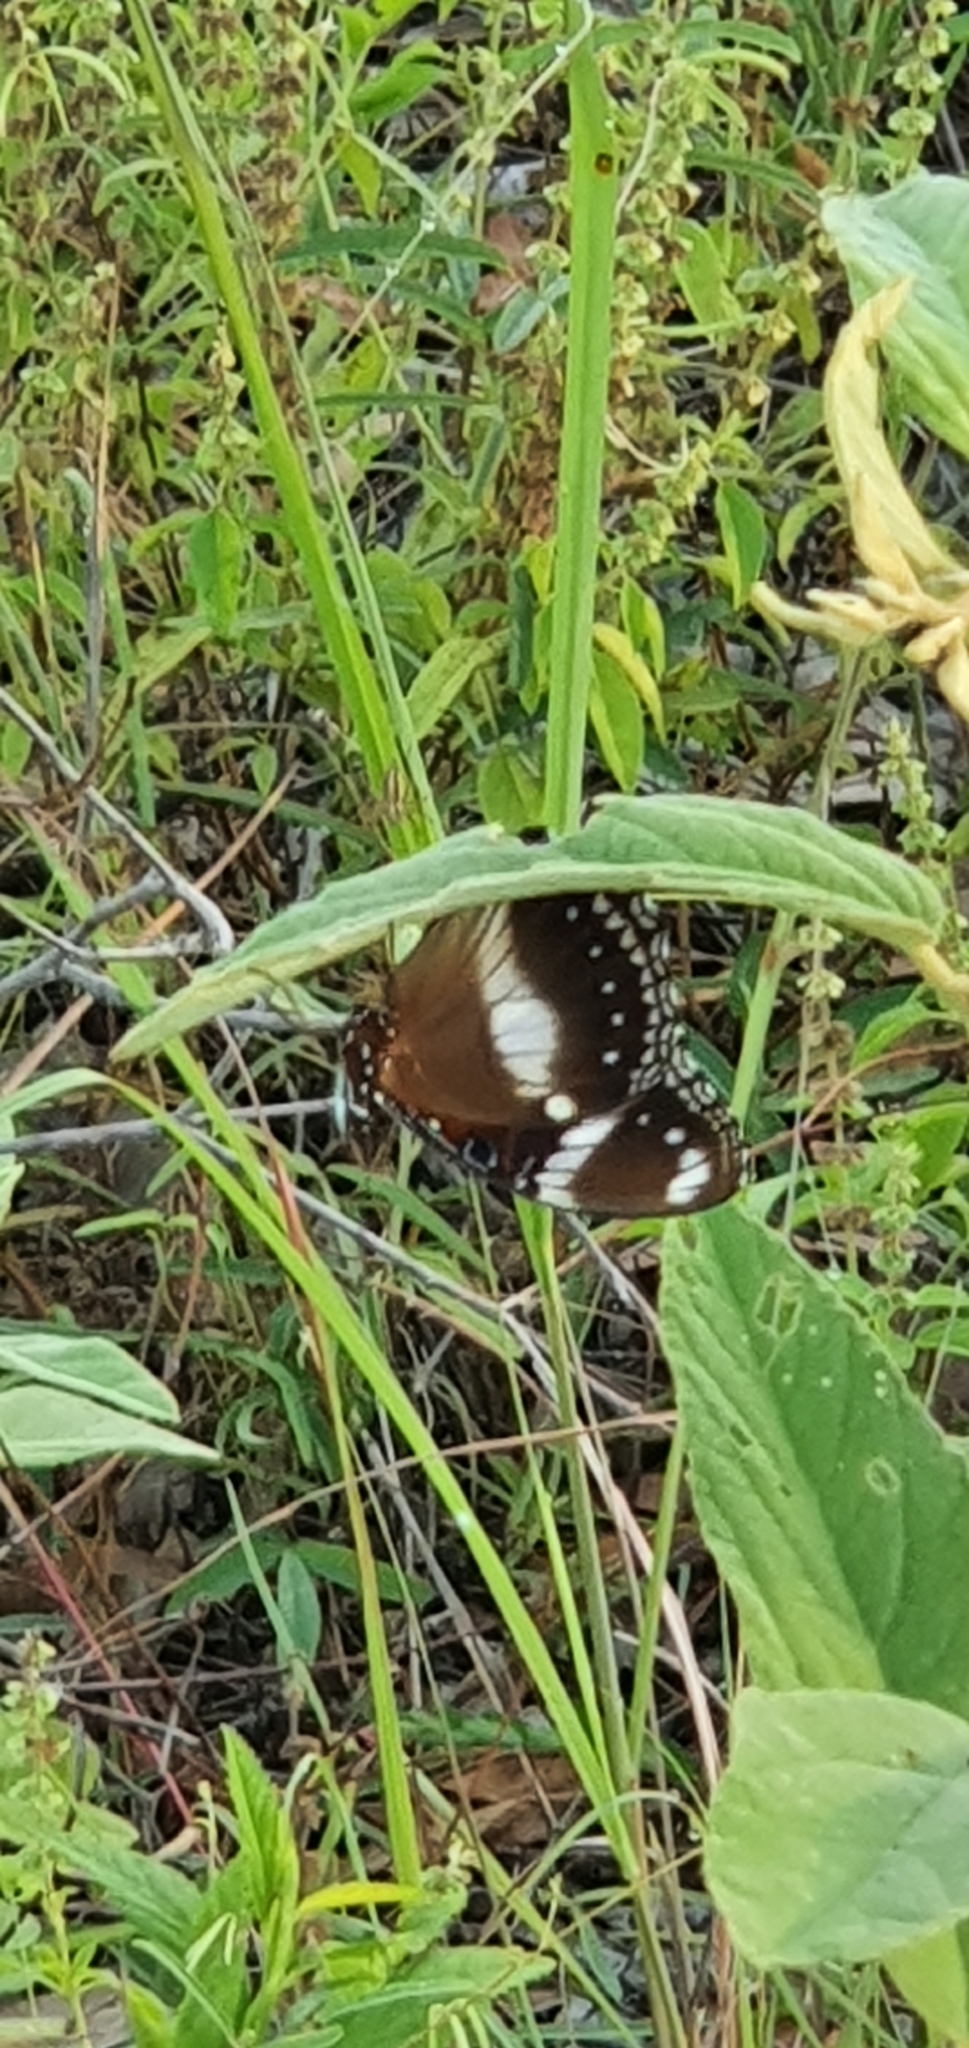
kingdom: Animalia
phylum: Arthropoda
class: Insecta
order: Lepidoptera
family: Nymphalidae
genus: Hypolimnas
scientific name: Hypolimnas bolina
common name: Great eggfly
